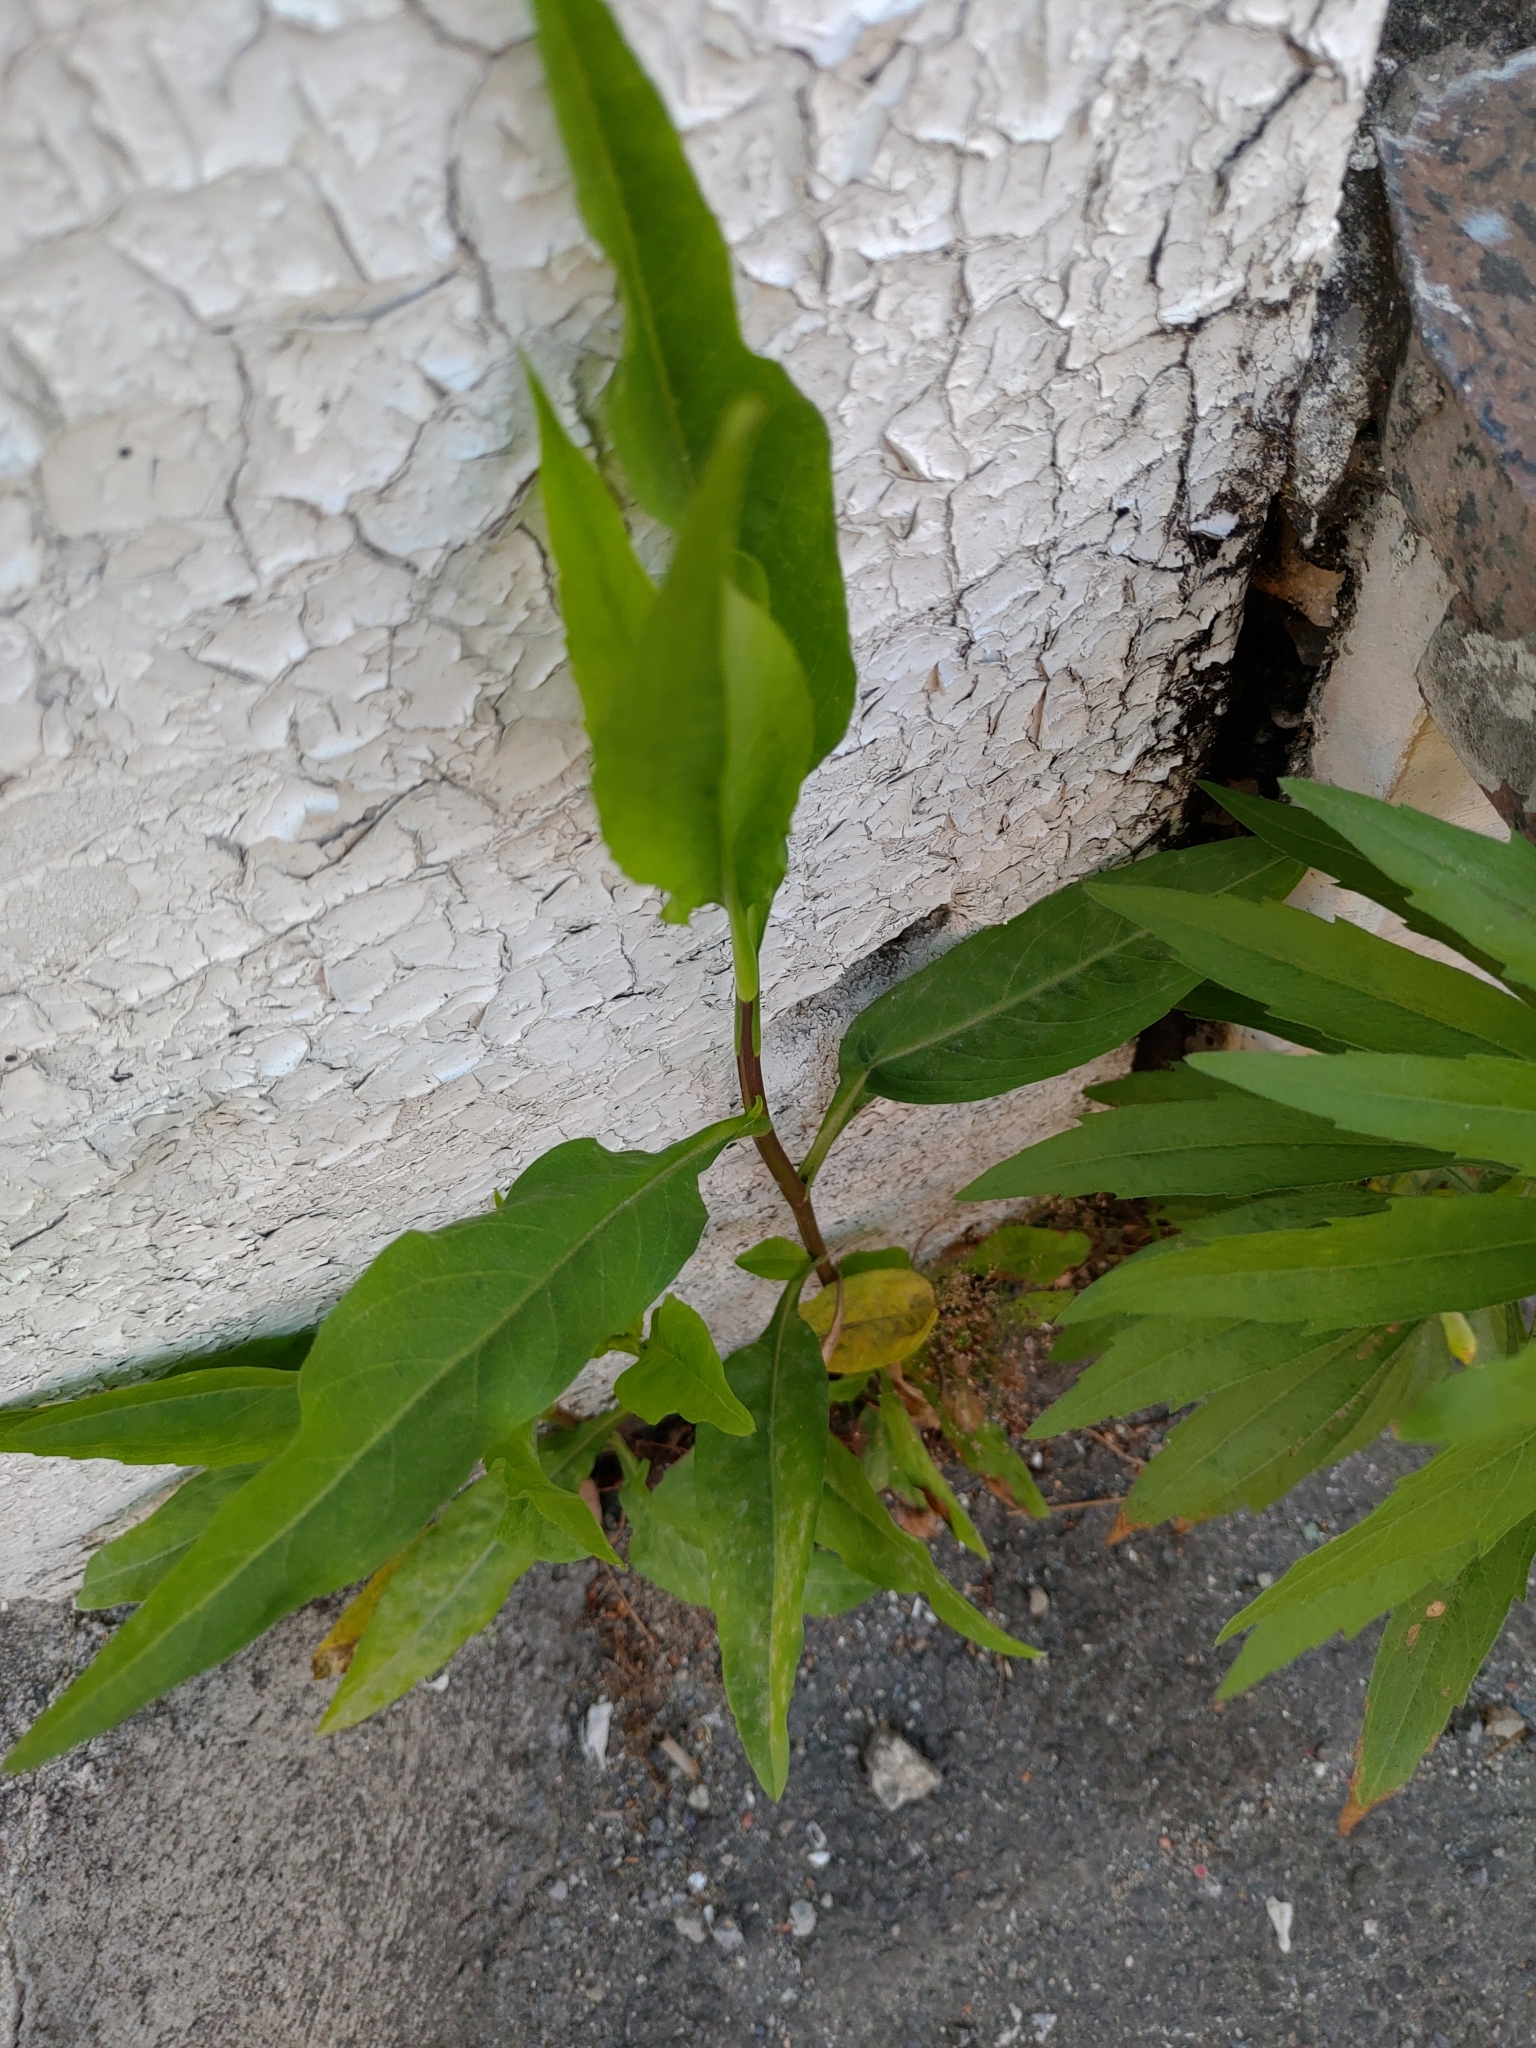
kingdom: Plantae
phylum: Tracheophyta
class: Magnoliopsida
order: Asterales
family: Asteraceae
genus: Symphyotrichum
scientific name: Symphyotrichum subulatum
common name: Annual saltmarsh aster
